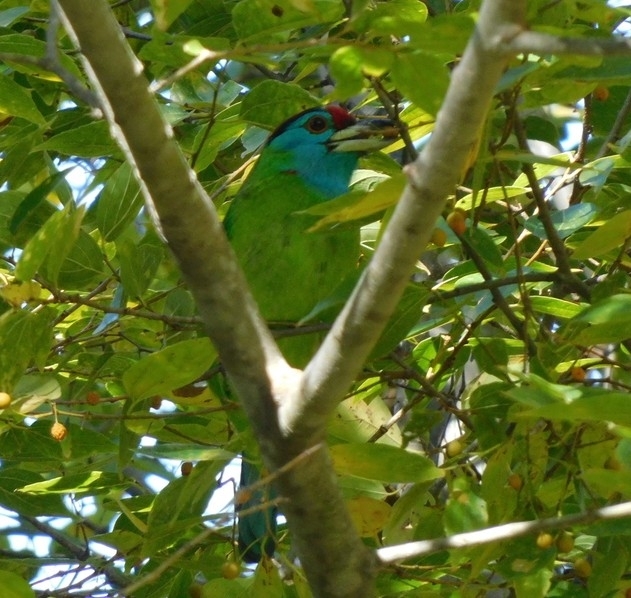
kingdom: Animalia
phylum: Chordata
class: Aves
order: Piciformes
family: Megalaimidae
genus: Psilopogon
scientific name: Psilopogon asiaticus
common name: Blue-throated barbet
